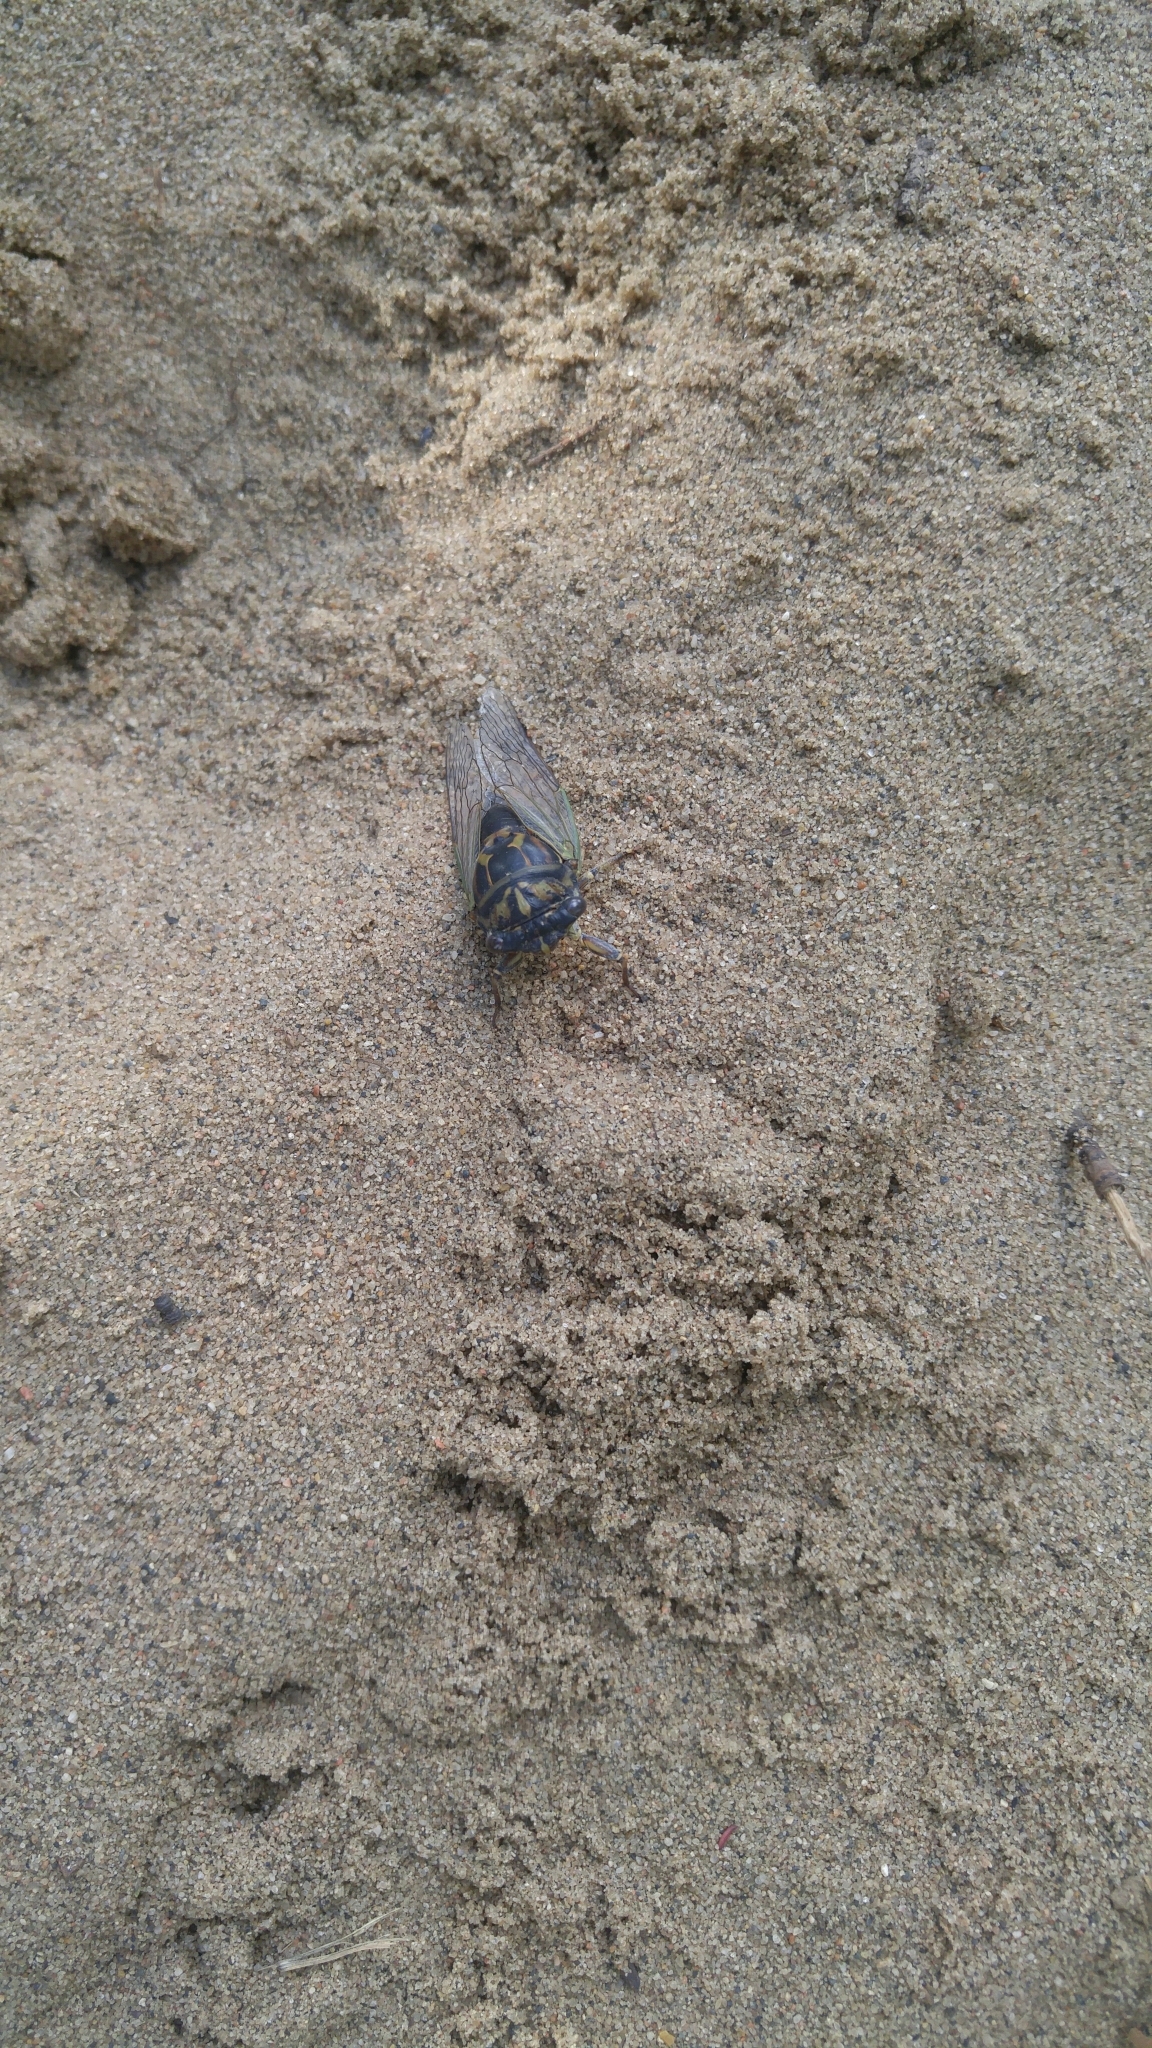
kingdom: Animalia
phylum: Arthropoda
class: Insecta
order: Hemiptera
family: Cicadidae
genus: Neotibicen
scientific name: Neotibicen canicularis
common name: God-day cicada
